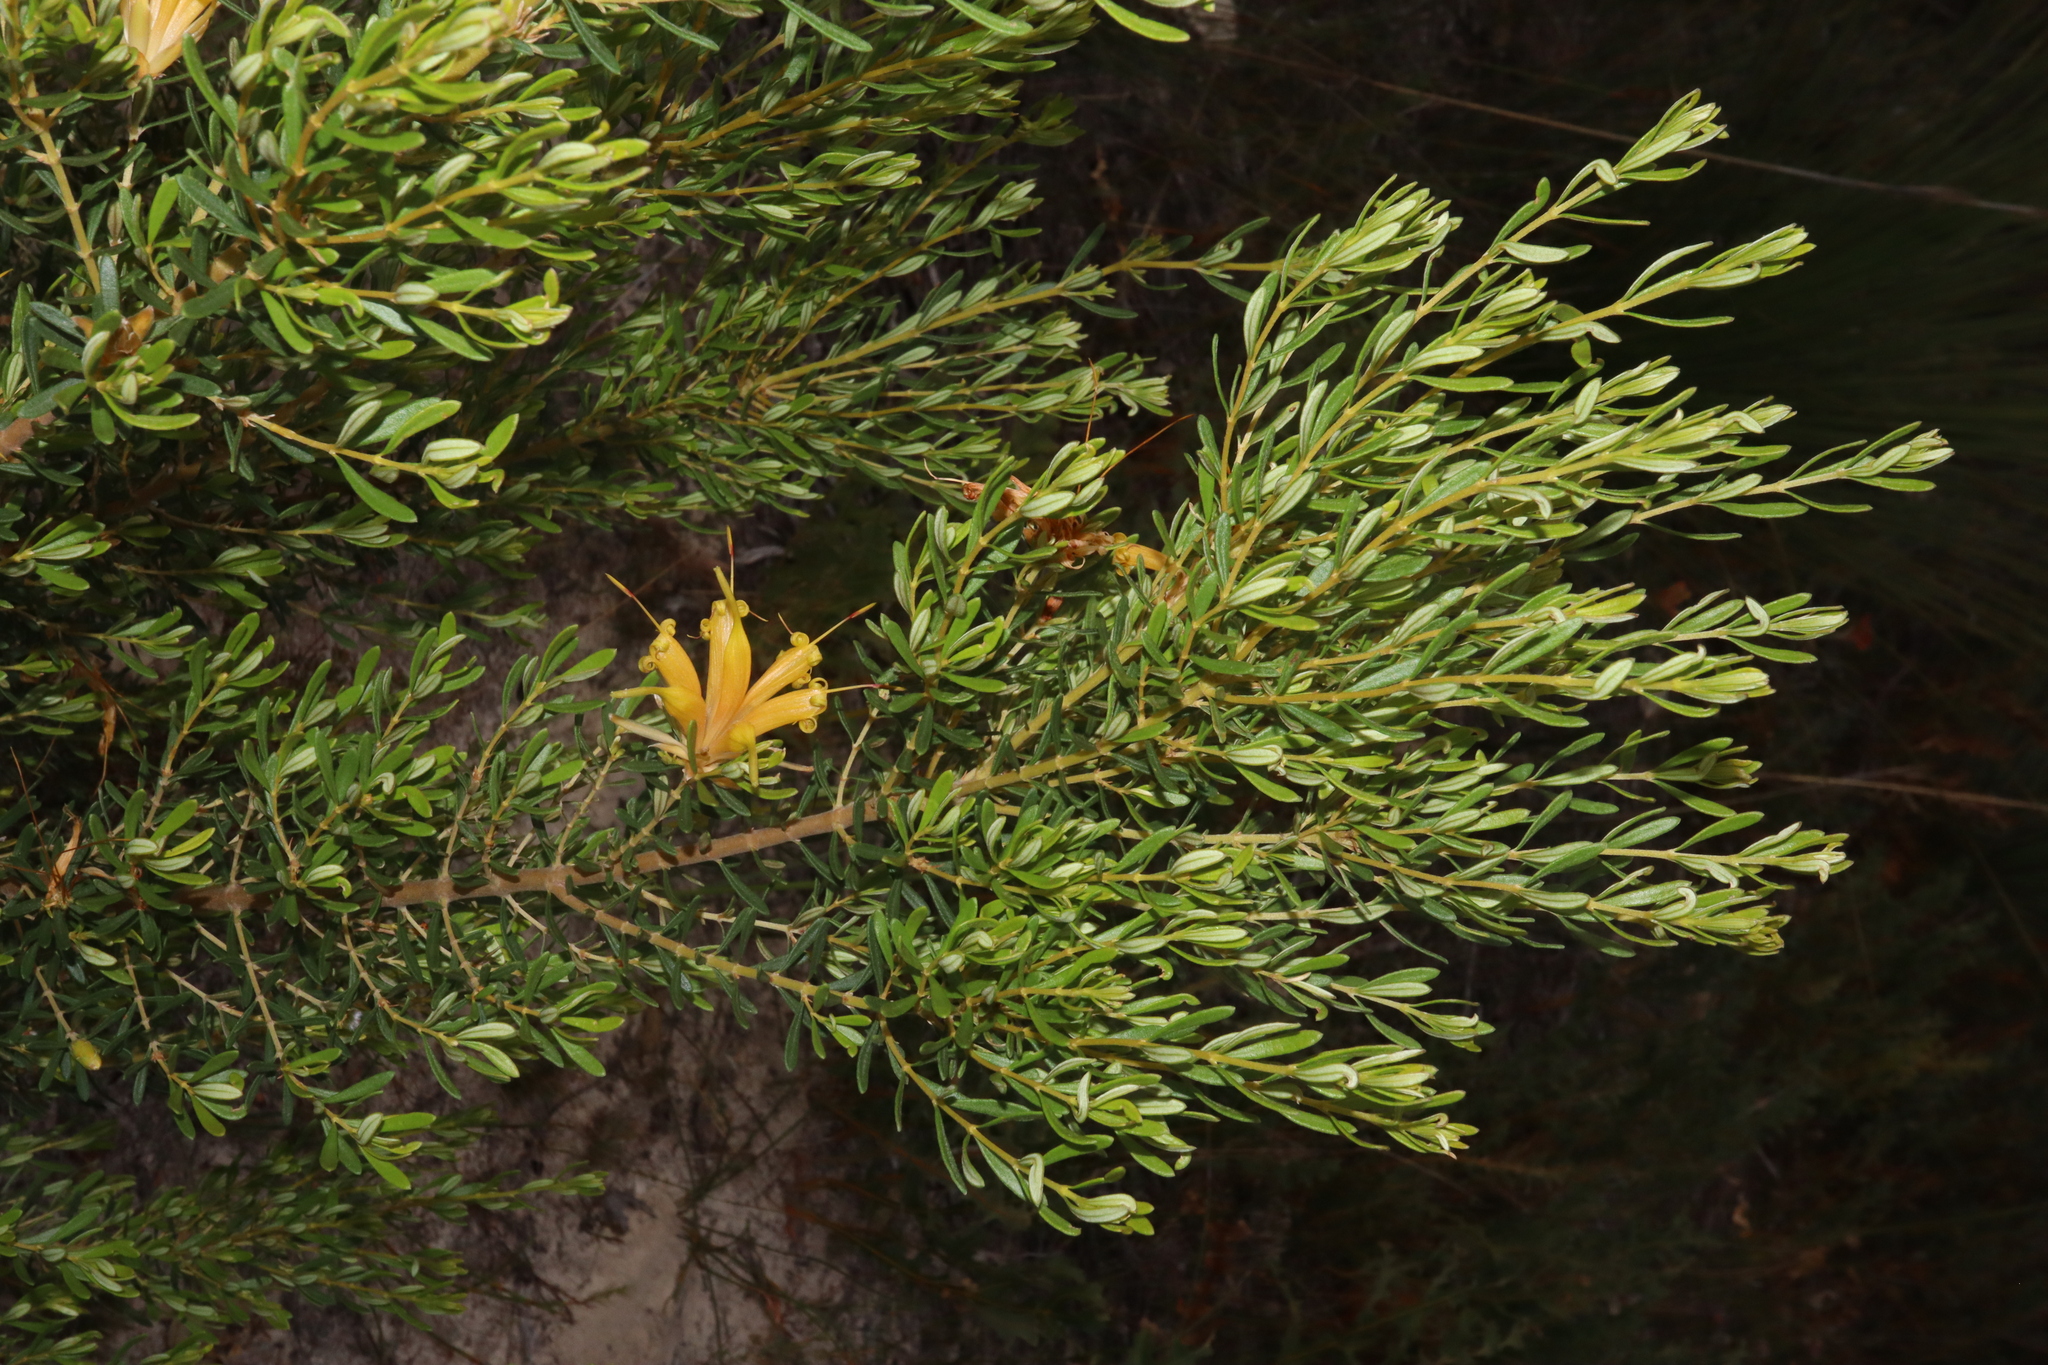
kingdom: Plantae
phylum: Tracheophyta
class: Magnoliopsida
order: Proteales
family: Proteaceae
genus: Lambertia
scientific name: Lambertia inermis
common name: Chittick
